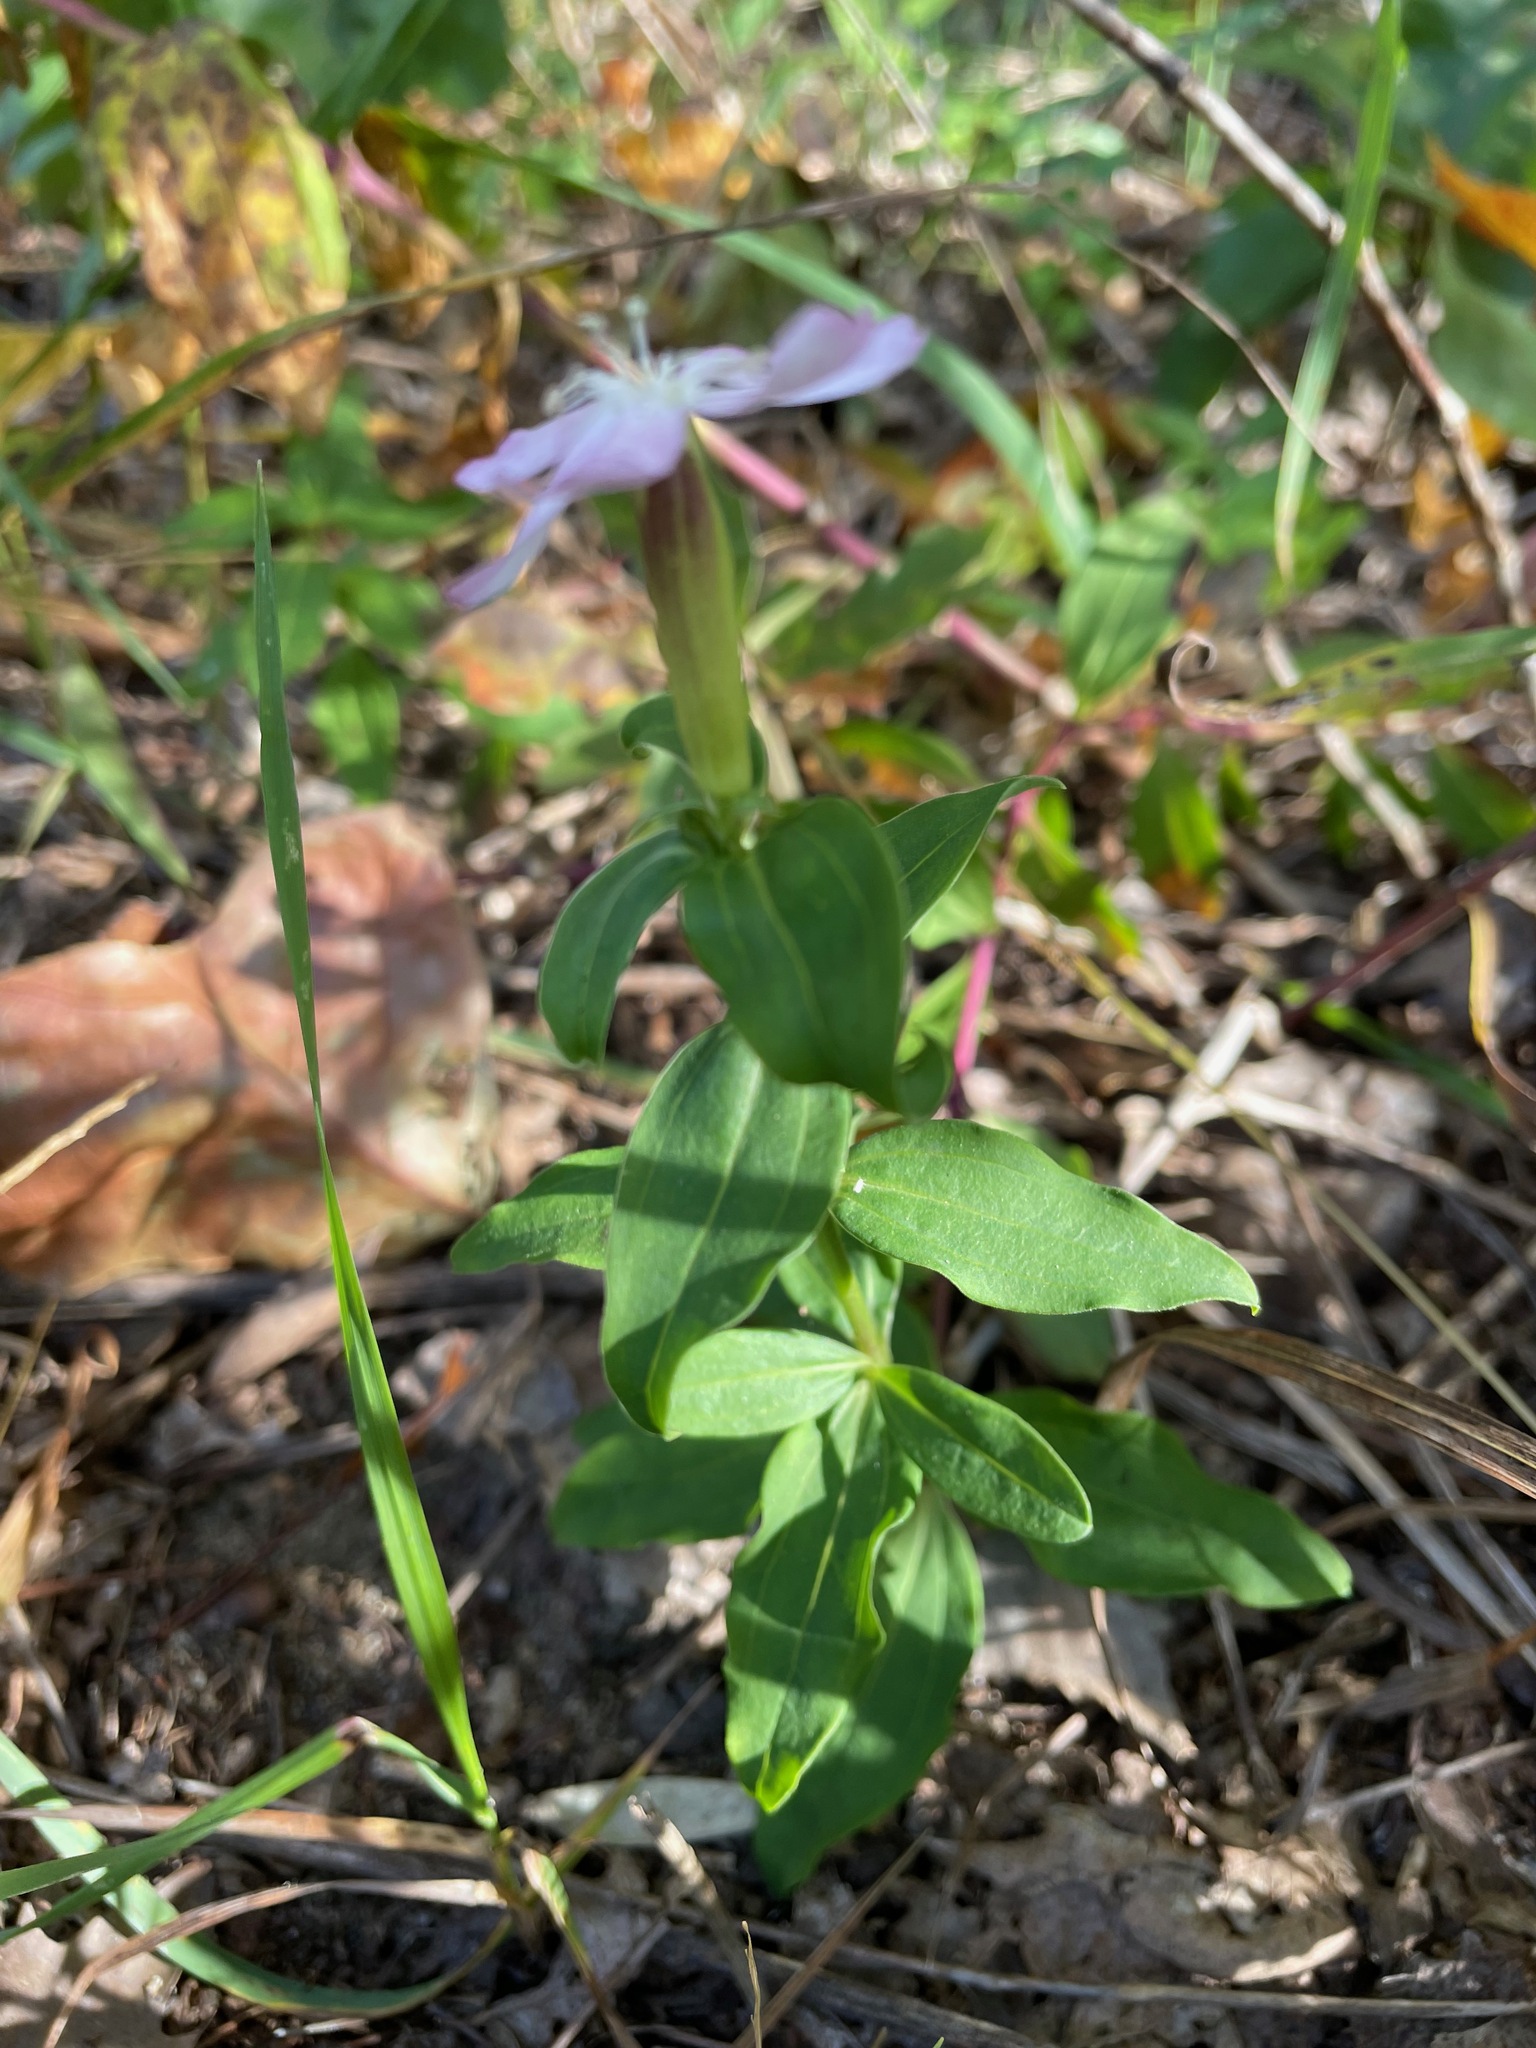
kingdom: Plantae
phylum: Tracheophyta
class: Magnoliopsida
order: Caryophyllales
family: Caryophyllaceae
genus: Saponaria
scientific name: Saponaria officinalis
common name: Soapwort
